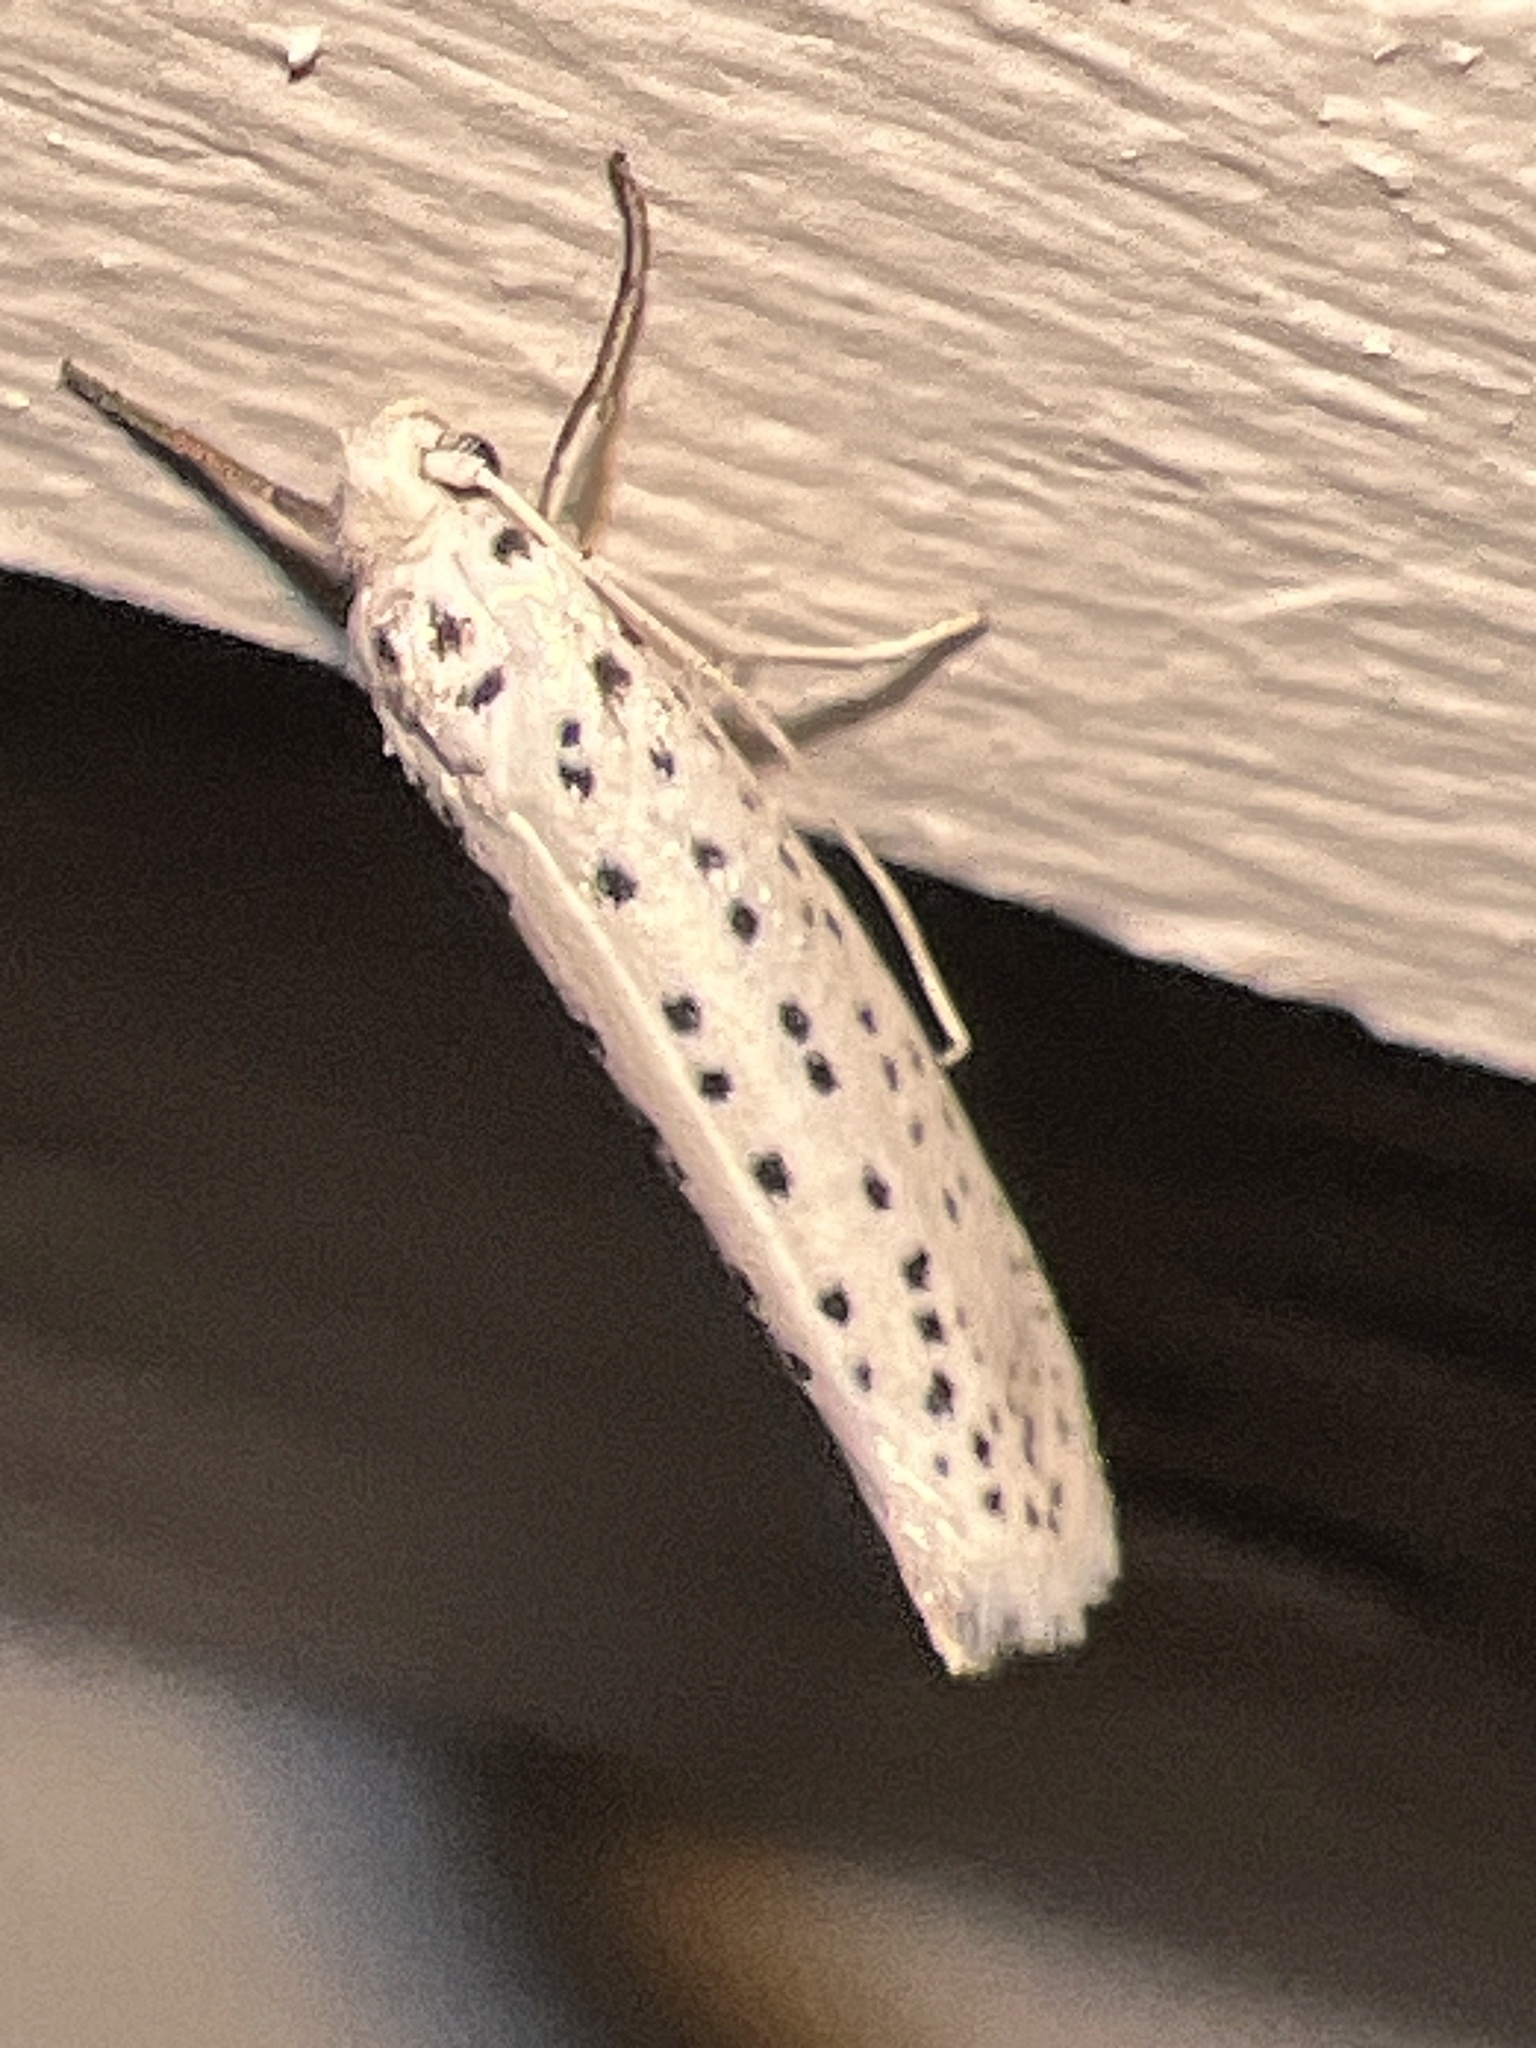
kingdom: Animalia
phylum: Arthropoda
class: Insecta
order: Lepidoptera
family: Yponomeutidae
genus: Yponomeuta
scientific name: Yponomeuta multipunctella
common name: American ermine moth
